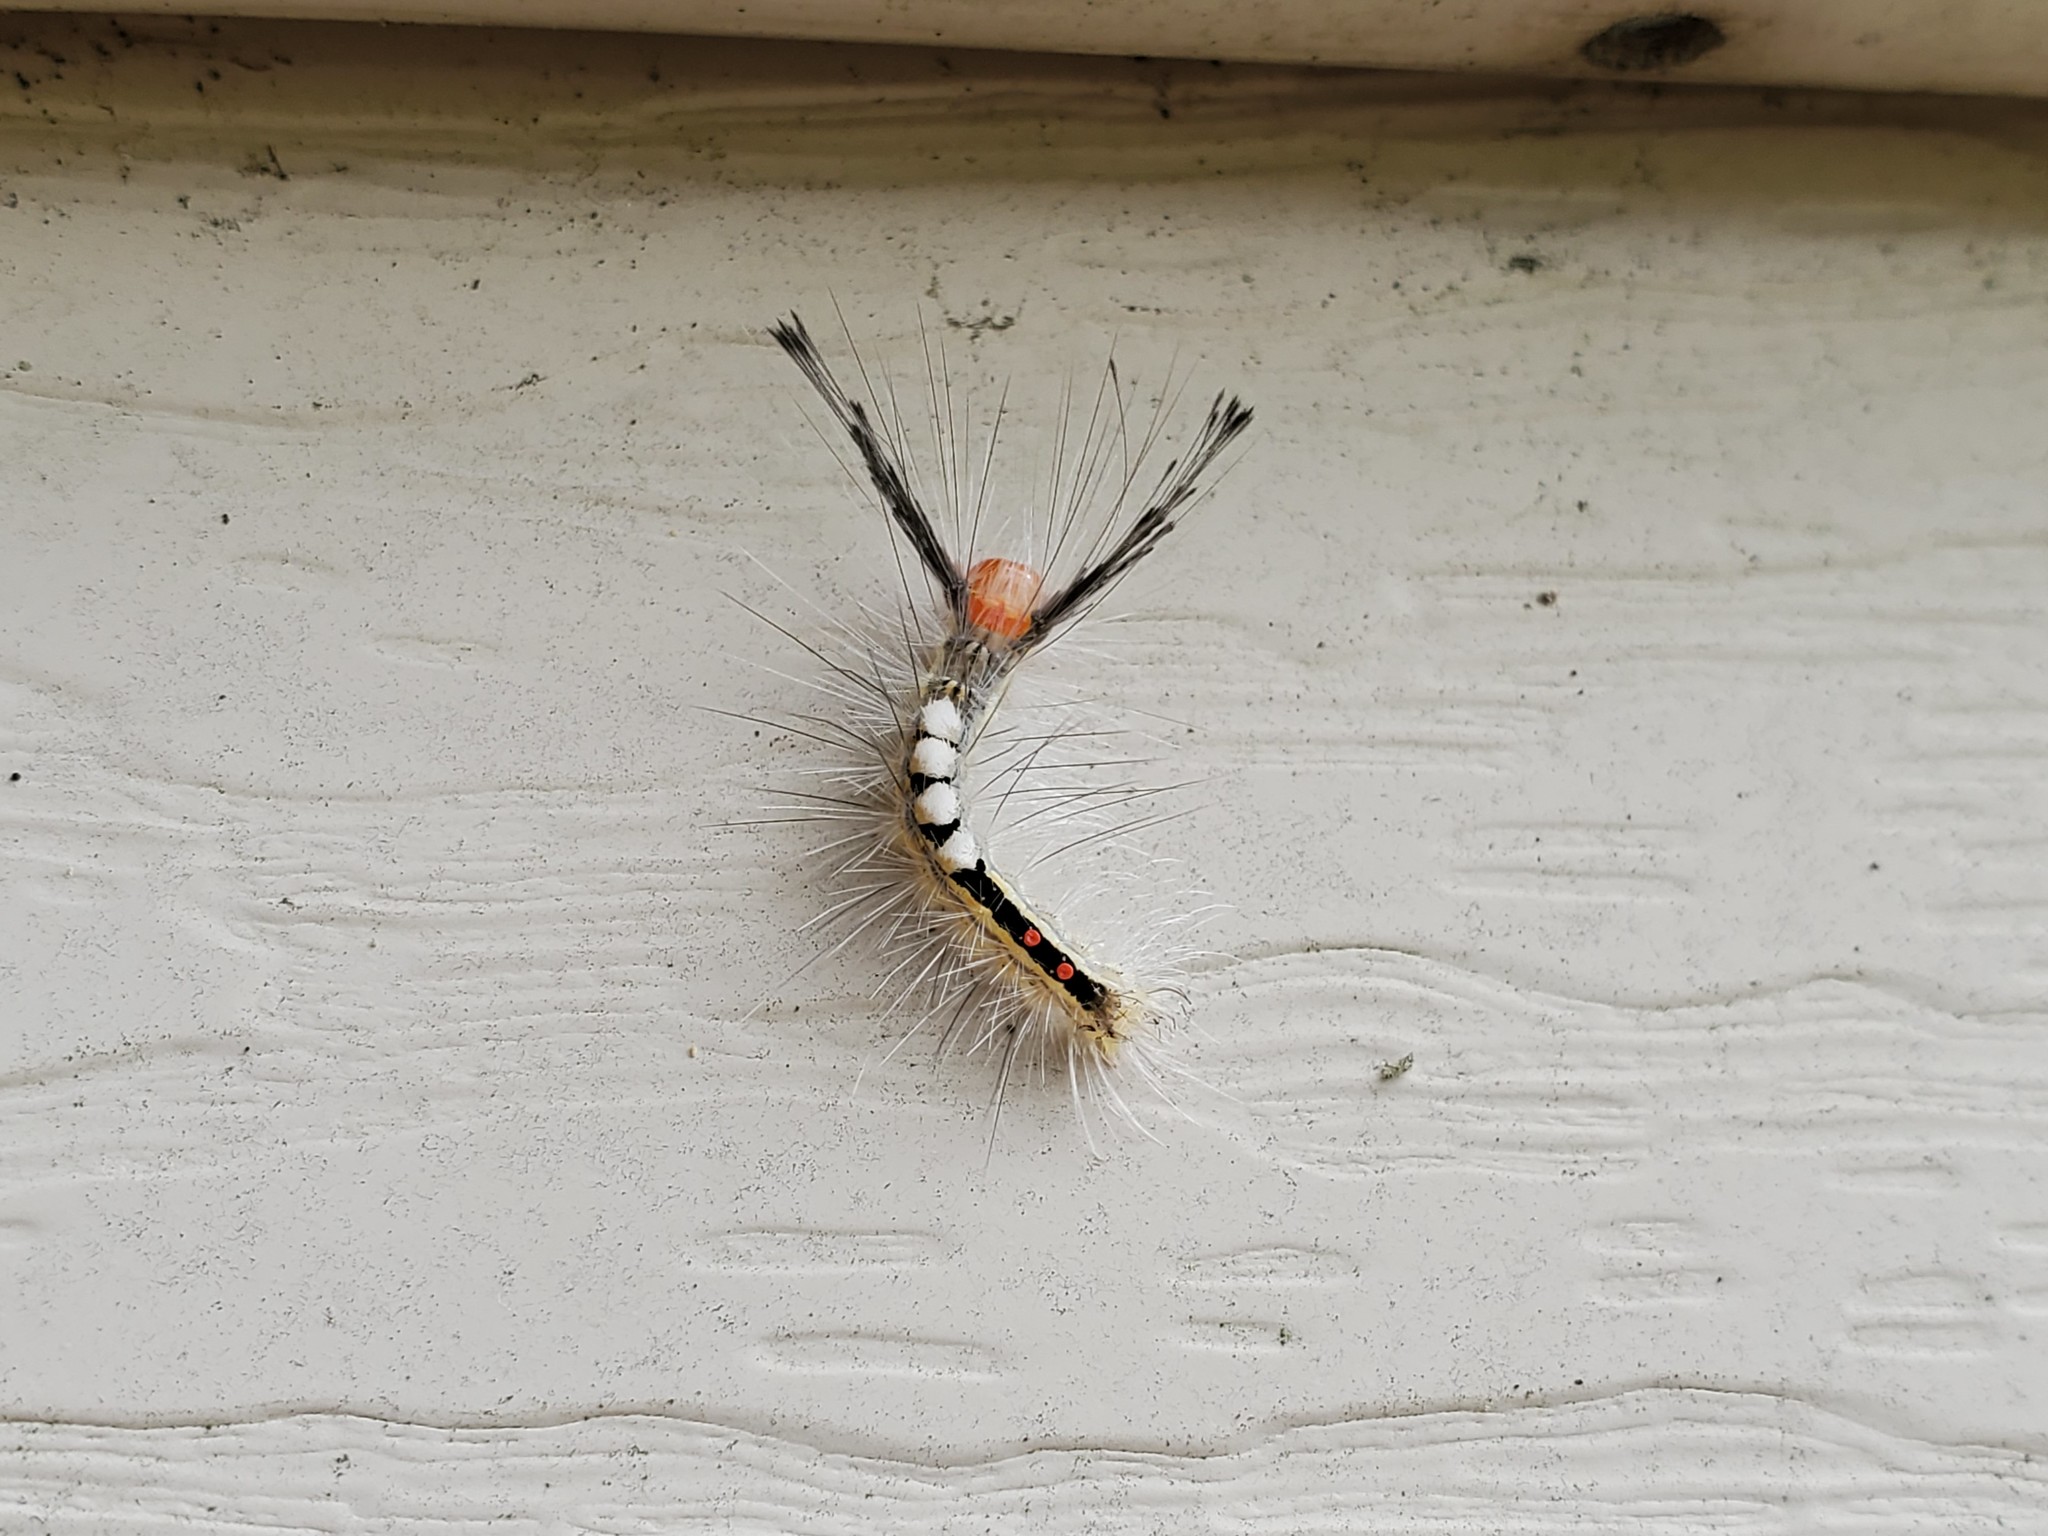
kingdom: Animalia
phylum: Arthropoda
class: Insecta
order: Lepidoptera
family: Erebidae
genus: Orgyia
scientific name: Orgyia leucostigma
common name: White-marked tussock moth
